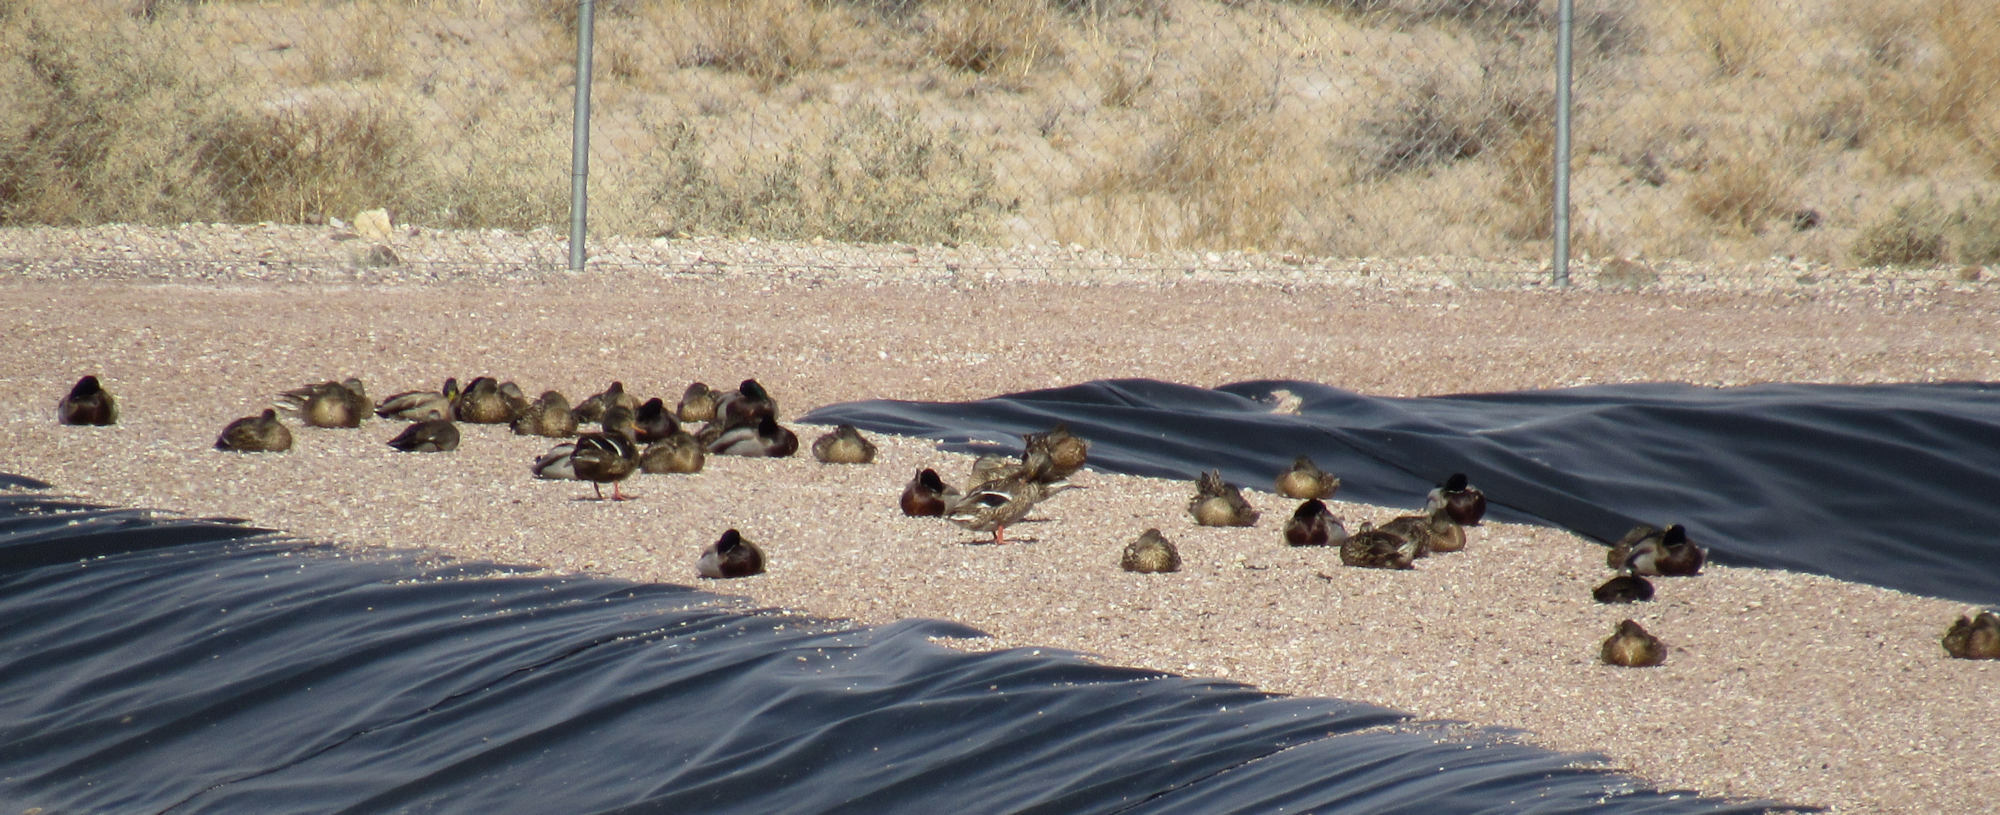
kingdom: Animalia
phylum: Chordata
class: Aves
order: Anseriformes
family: Anatidae
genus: Anas
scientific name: Anas platyrhynchos
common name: Mallard
